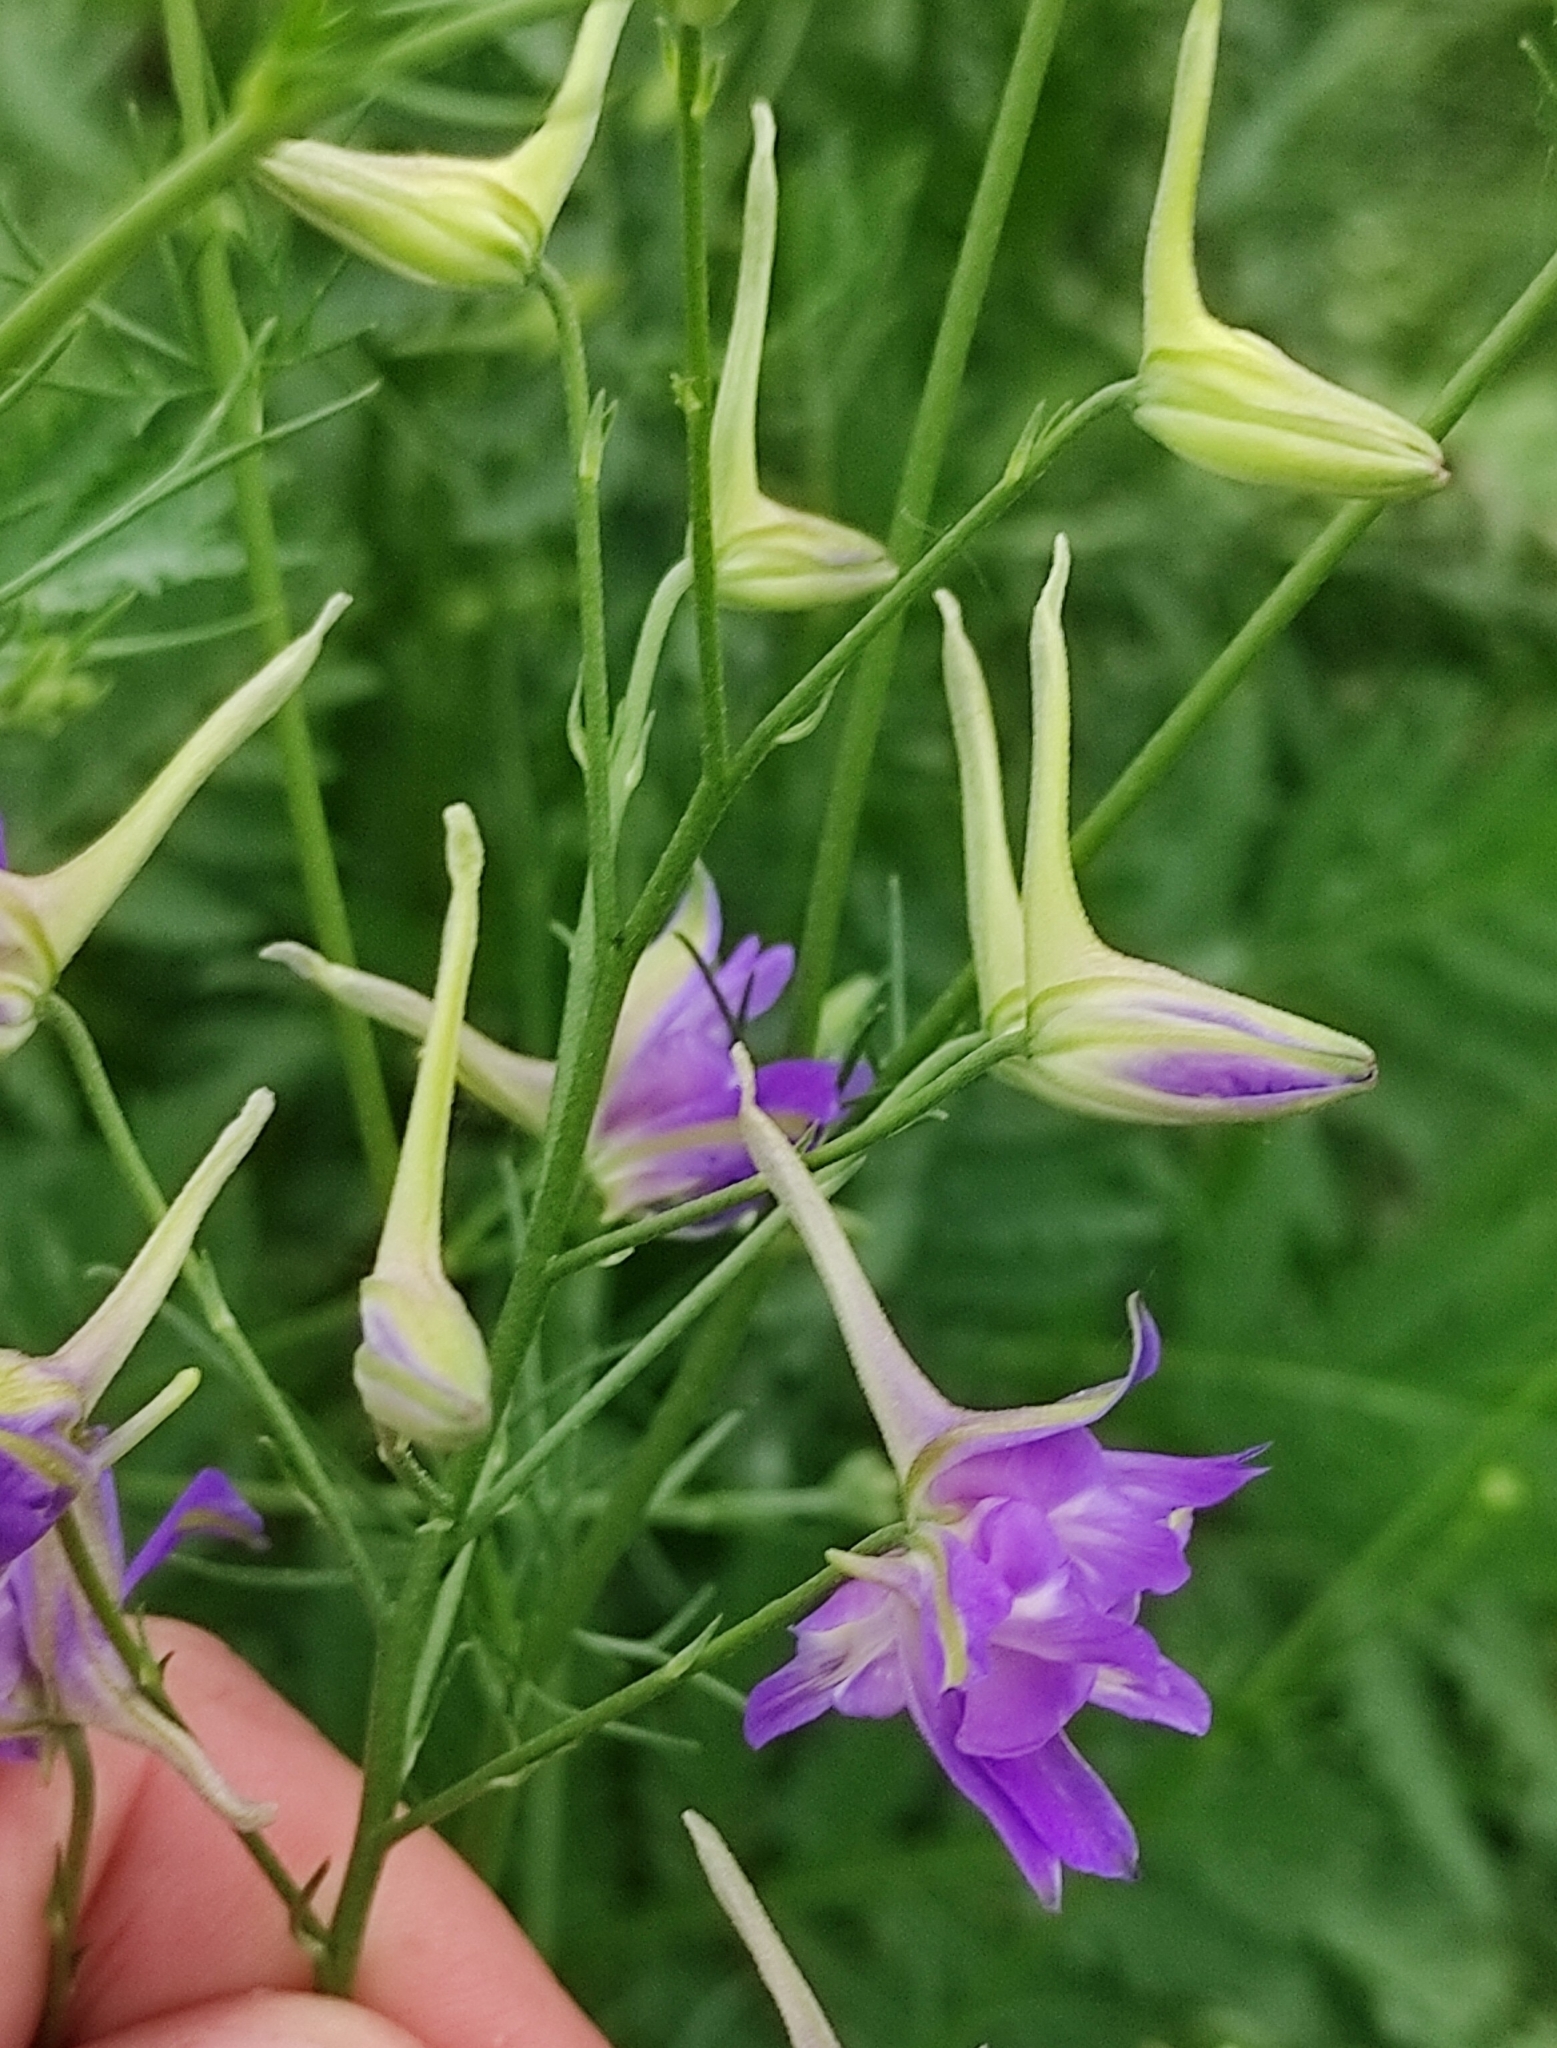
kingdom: Plantae
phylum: Tracheophyta
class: Magnoliopsida
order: Ranunculales
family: Ranunculaceae
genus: Delphinium
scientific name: Delphinium consolida
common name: Branching larkspur
